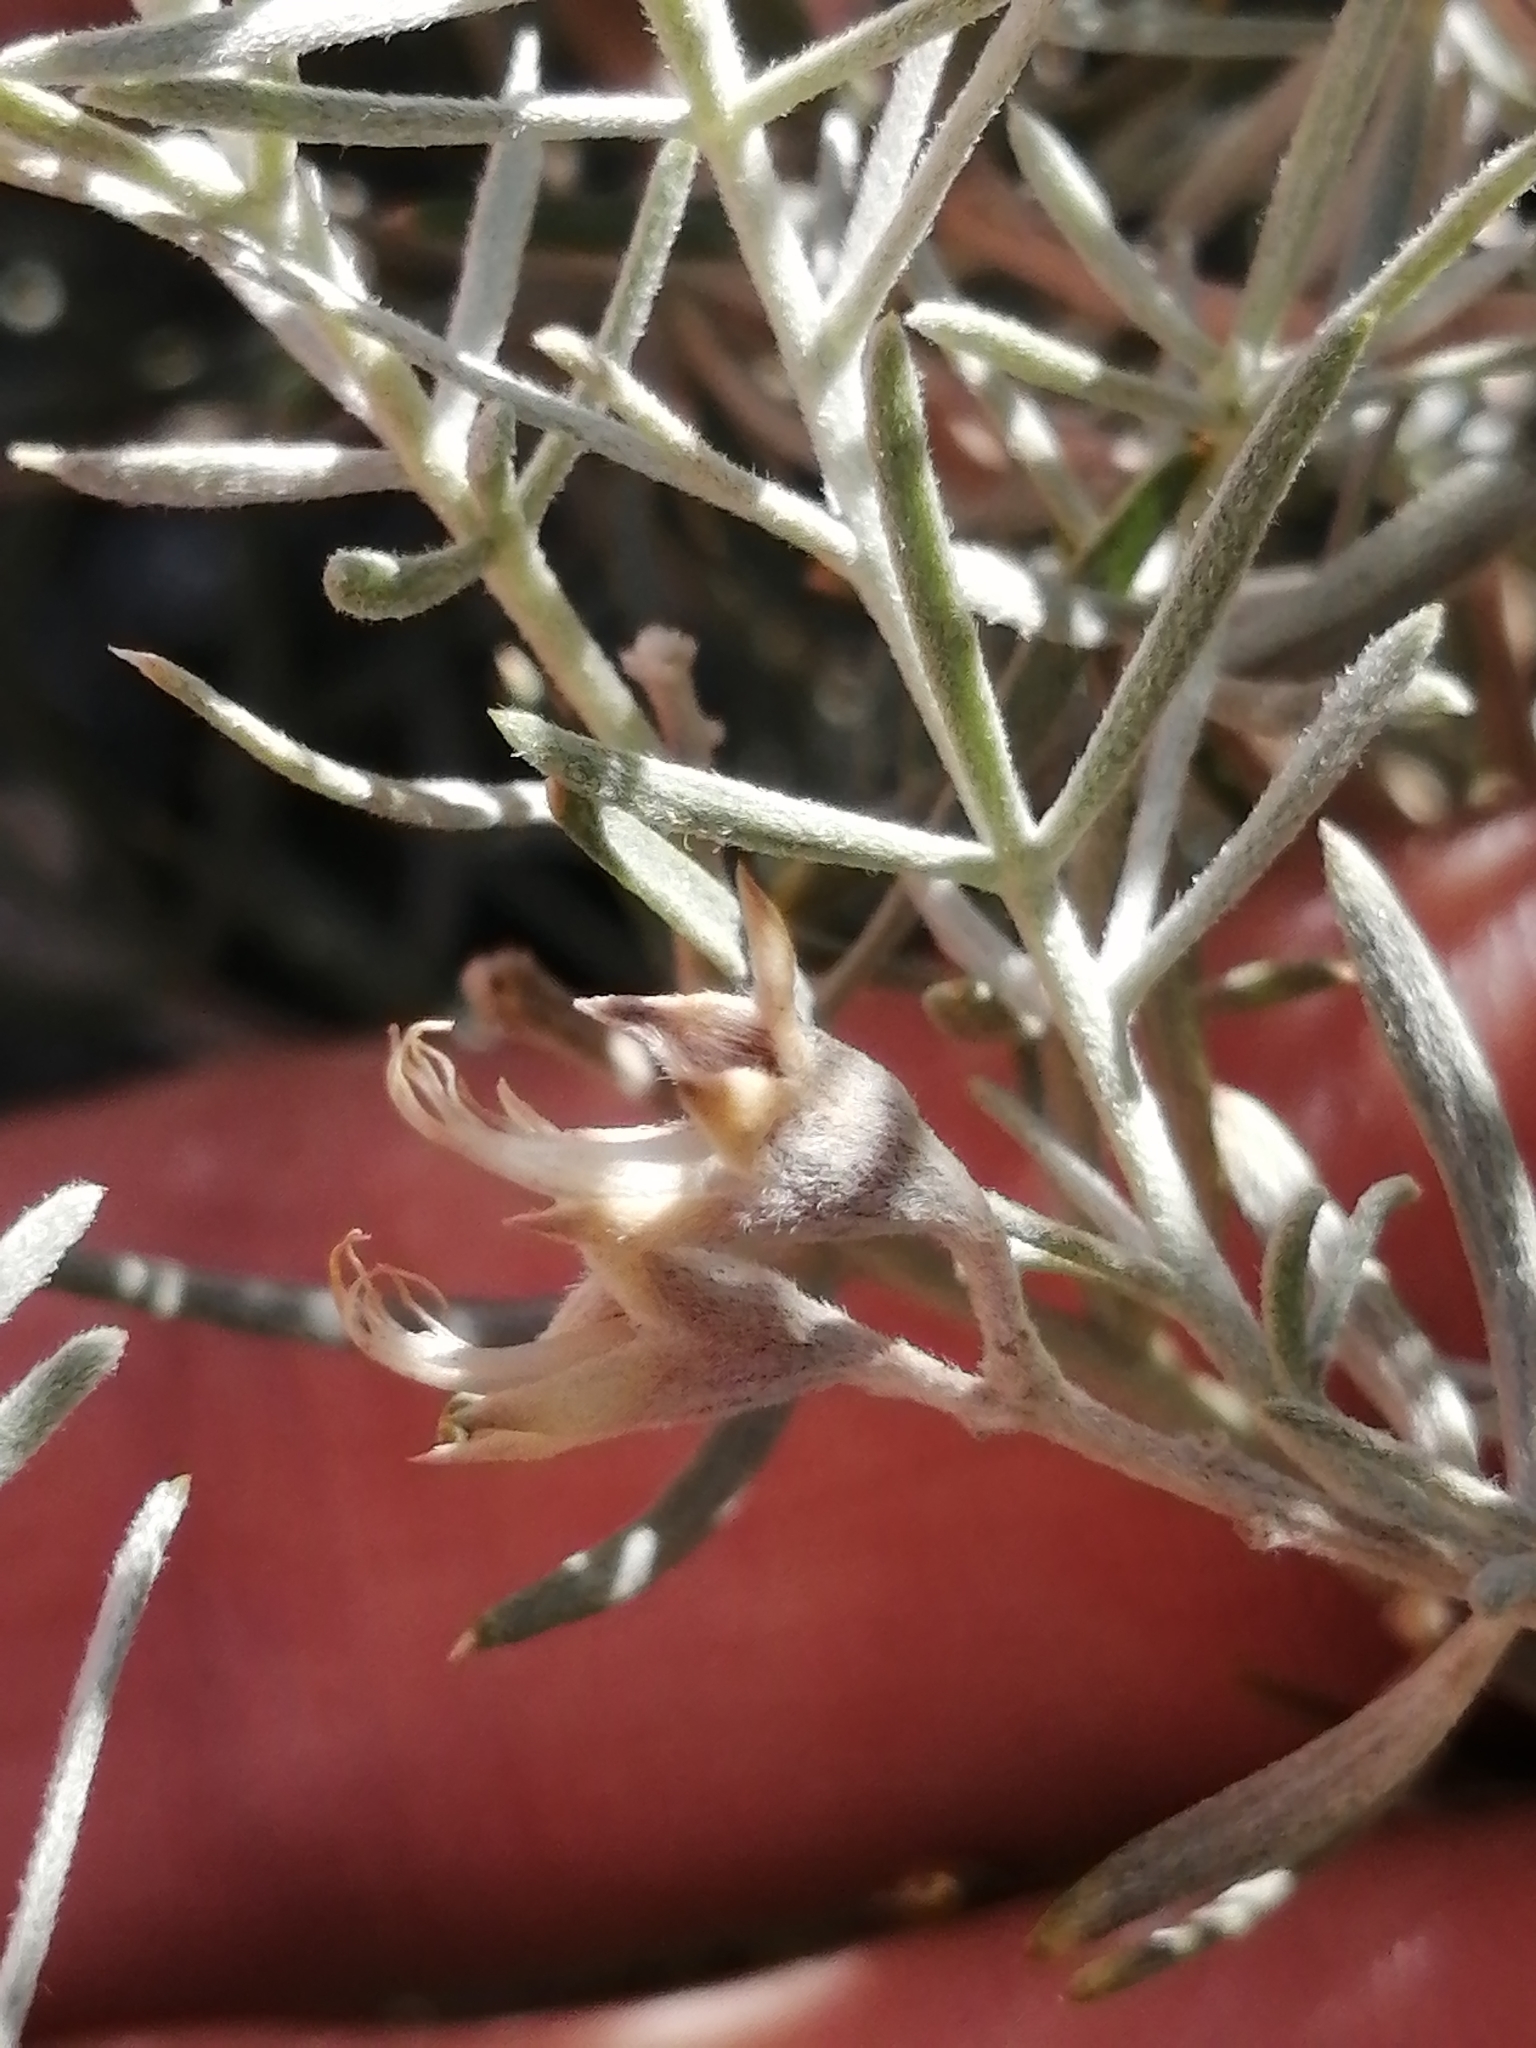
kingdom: Plantae
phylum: Tracheophyta
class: Magnoliopsida
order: Fabales
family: Fabaceae
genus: Aspalathus
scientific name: Aspalathus rugosa
